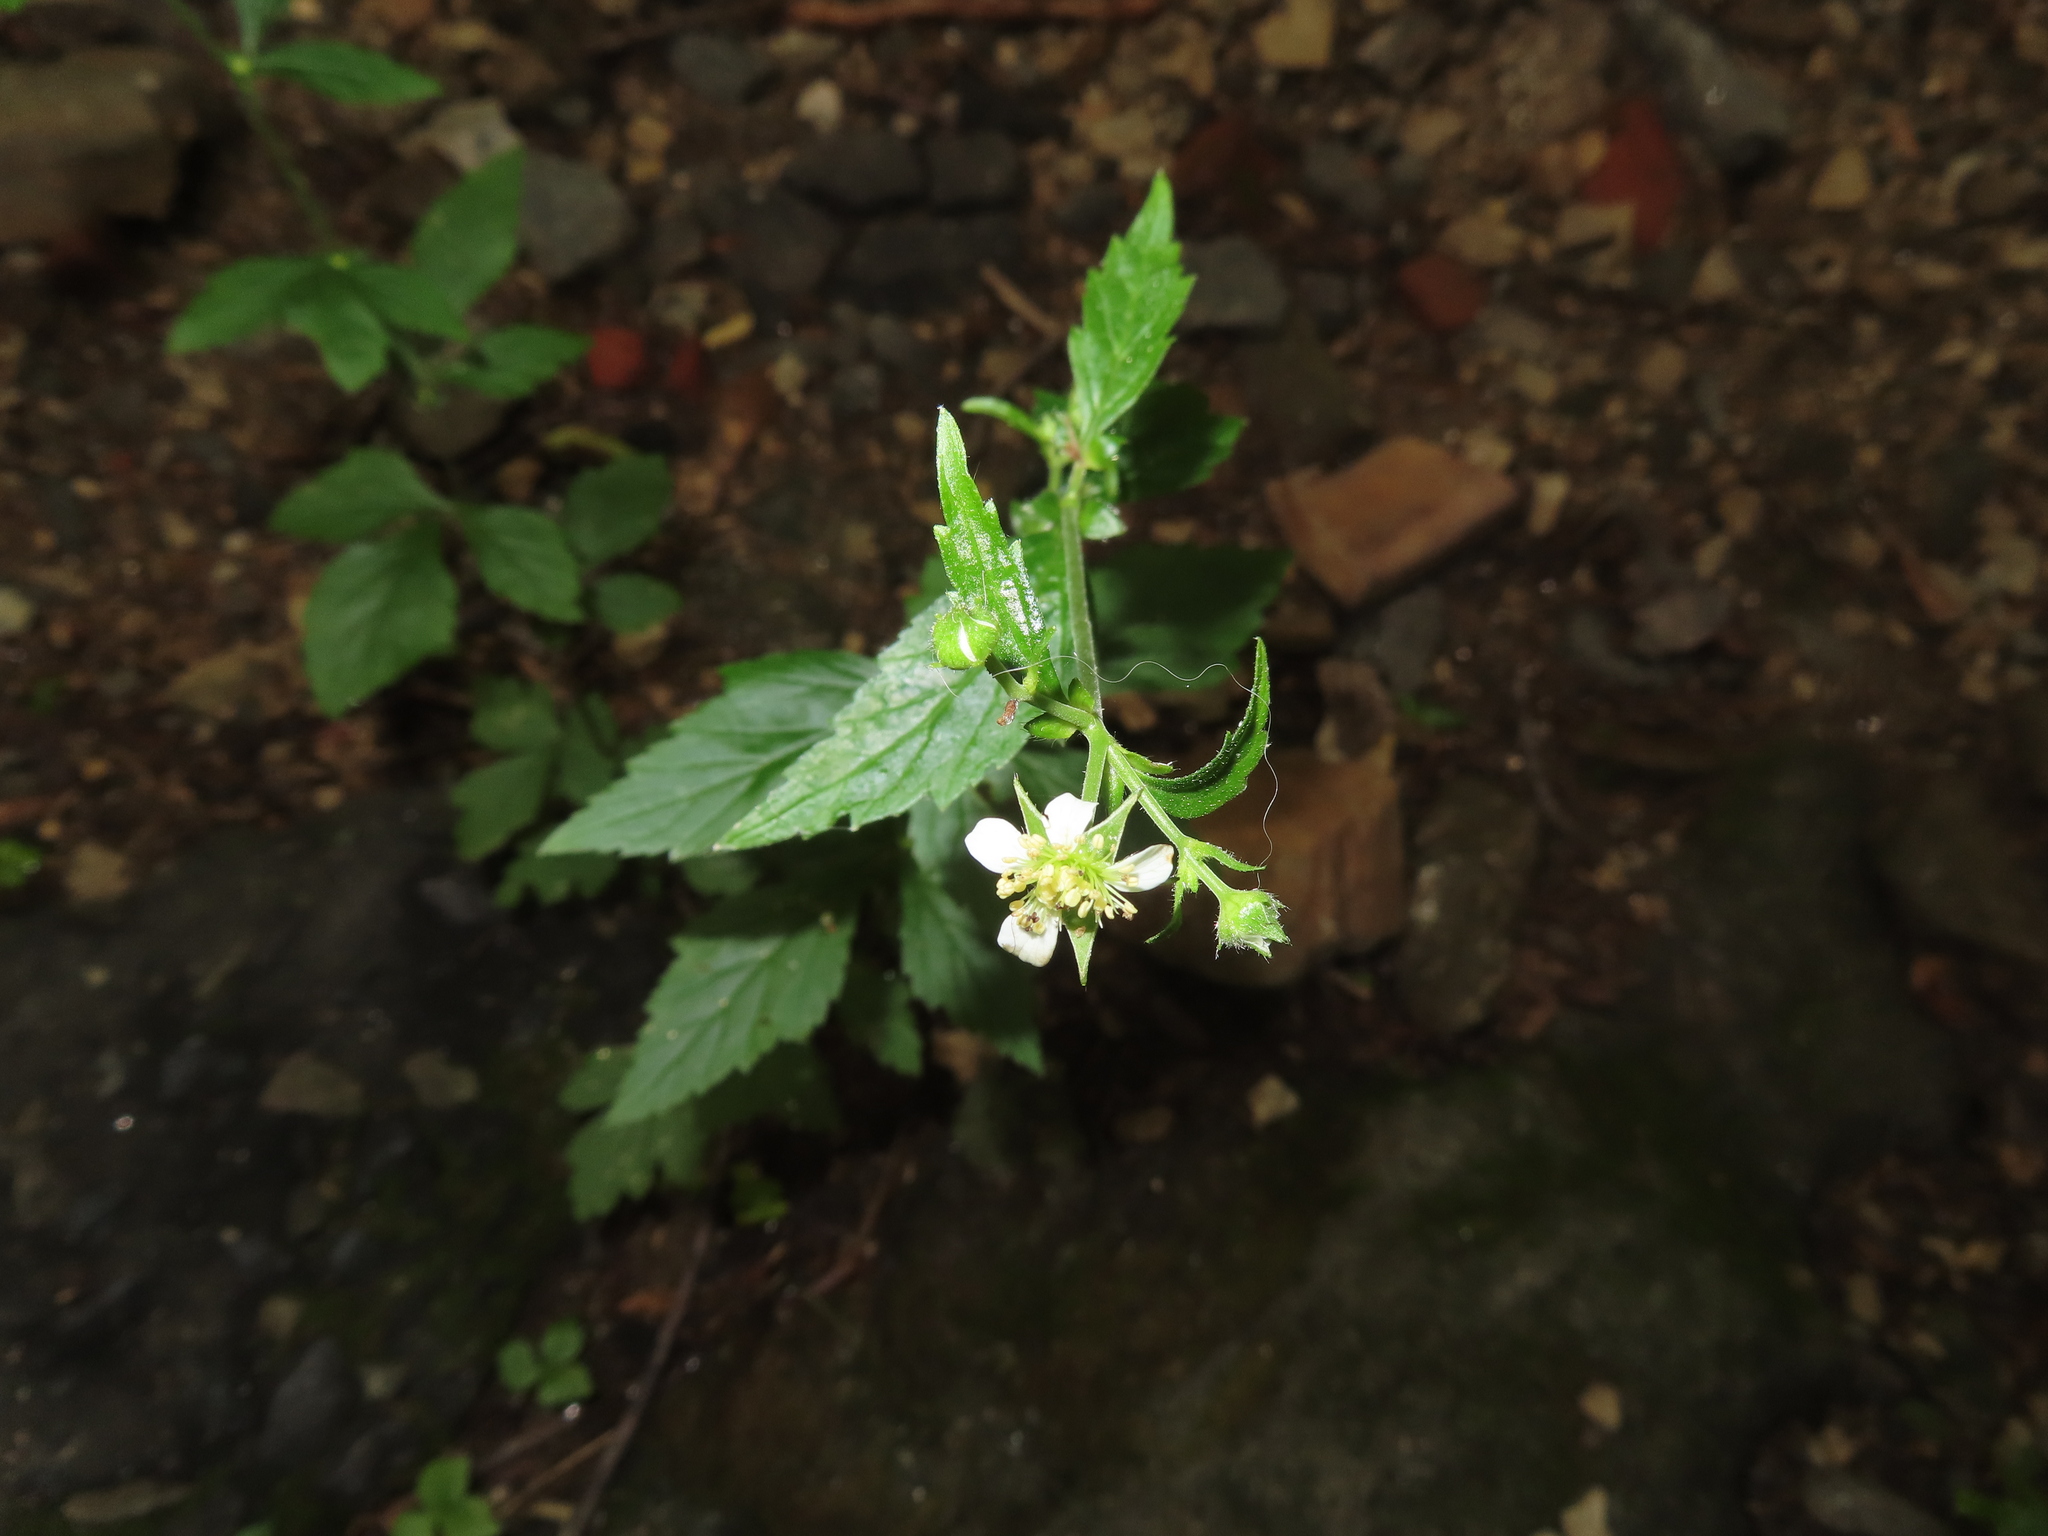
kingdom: Plantae
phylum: Tracheophyta
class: Magnoliopsida
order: Rosales
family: Rosaceae
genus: Geum
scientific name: Geum canadense
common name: White avens
